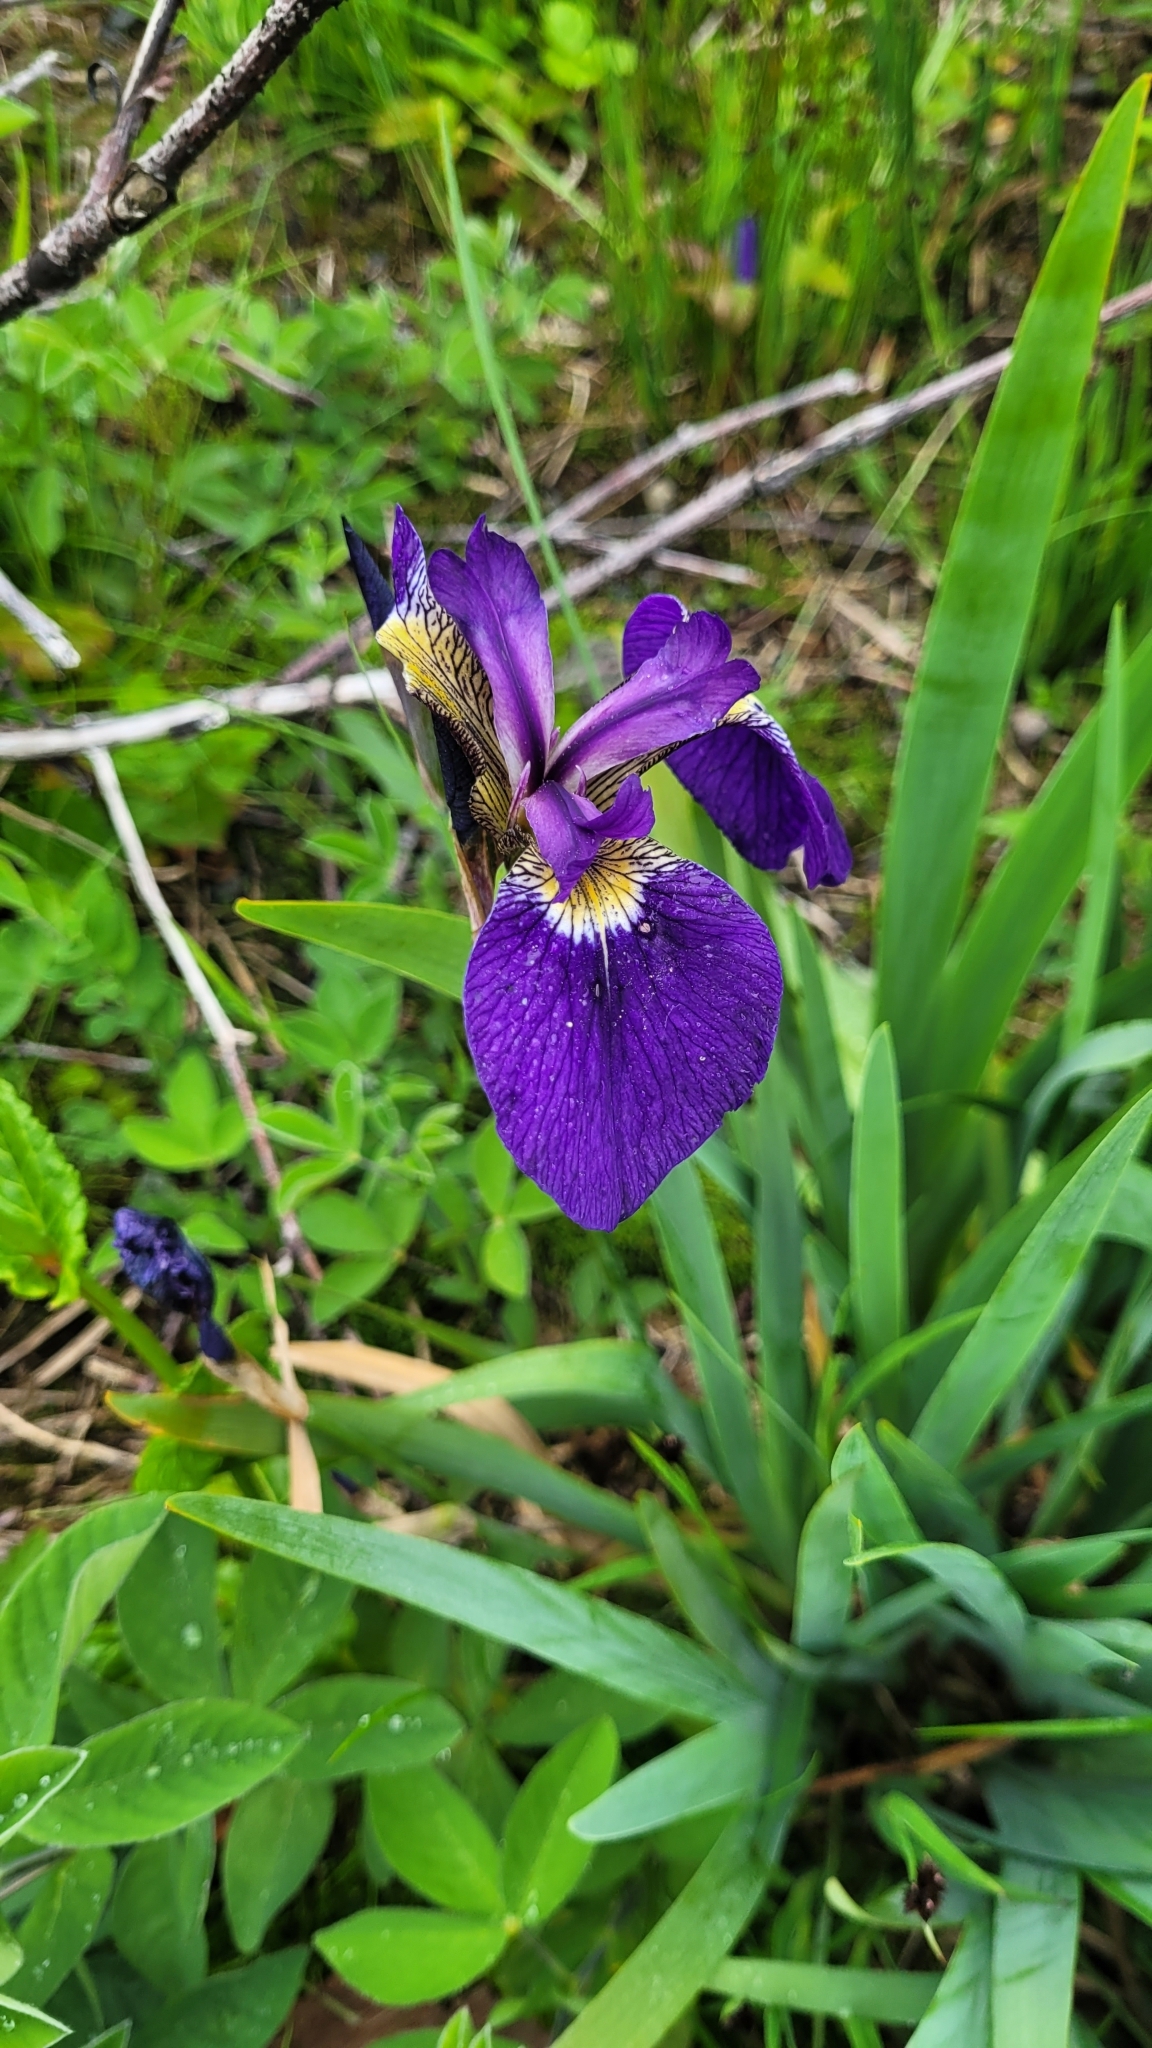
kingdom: Plantae
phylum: Tracheophyta
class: Liliopsida
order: Asparagales
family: Iridaceae
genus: Iris
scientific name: Iris setosa
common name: Arctic blue flag
